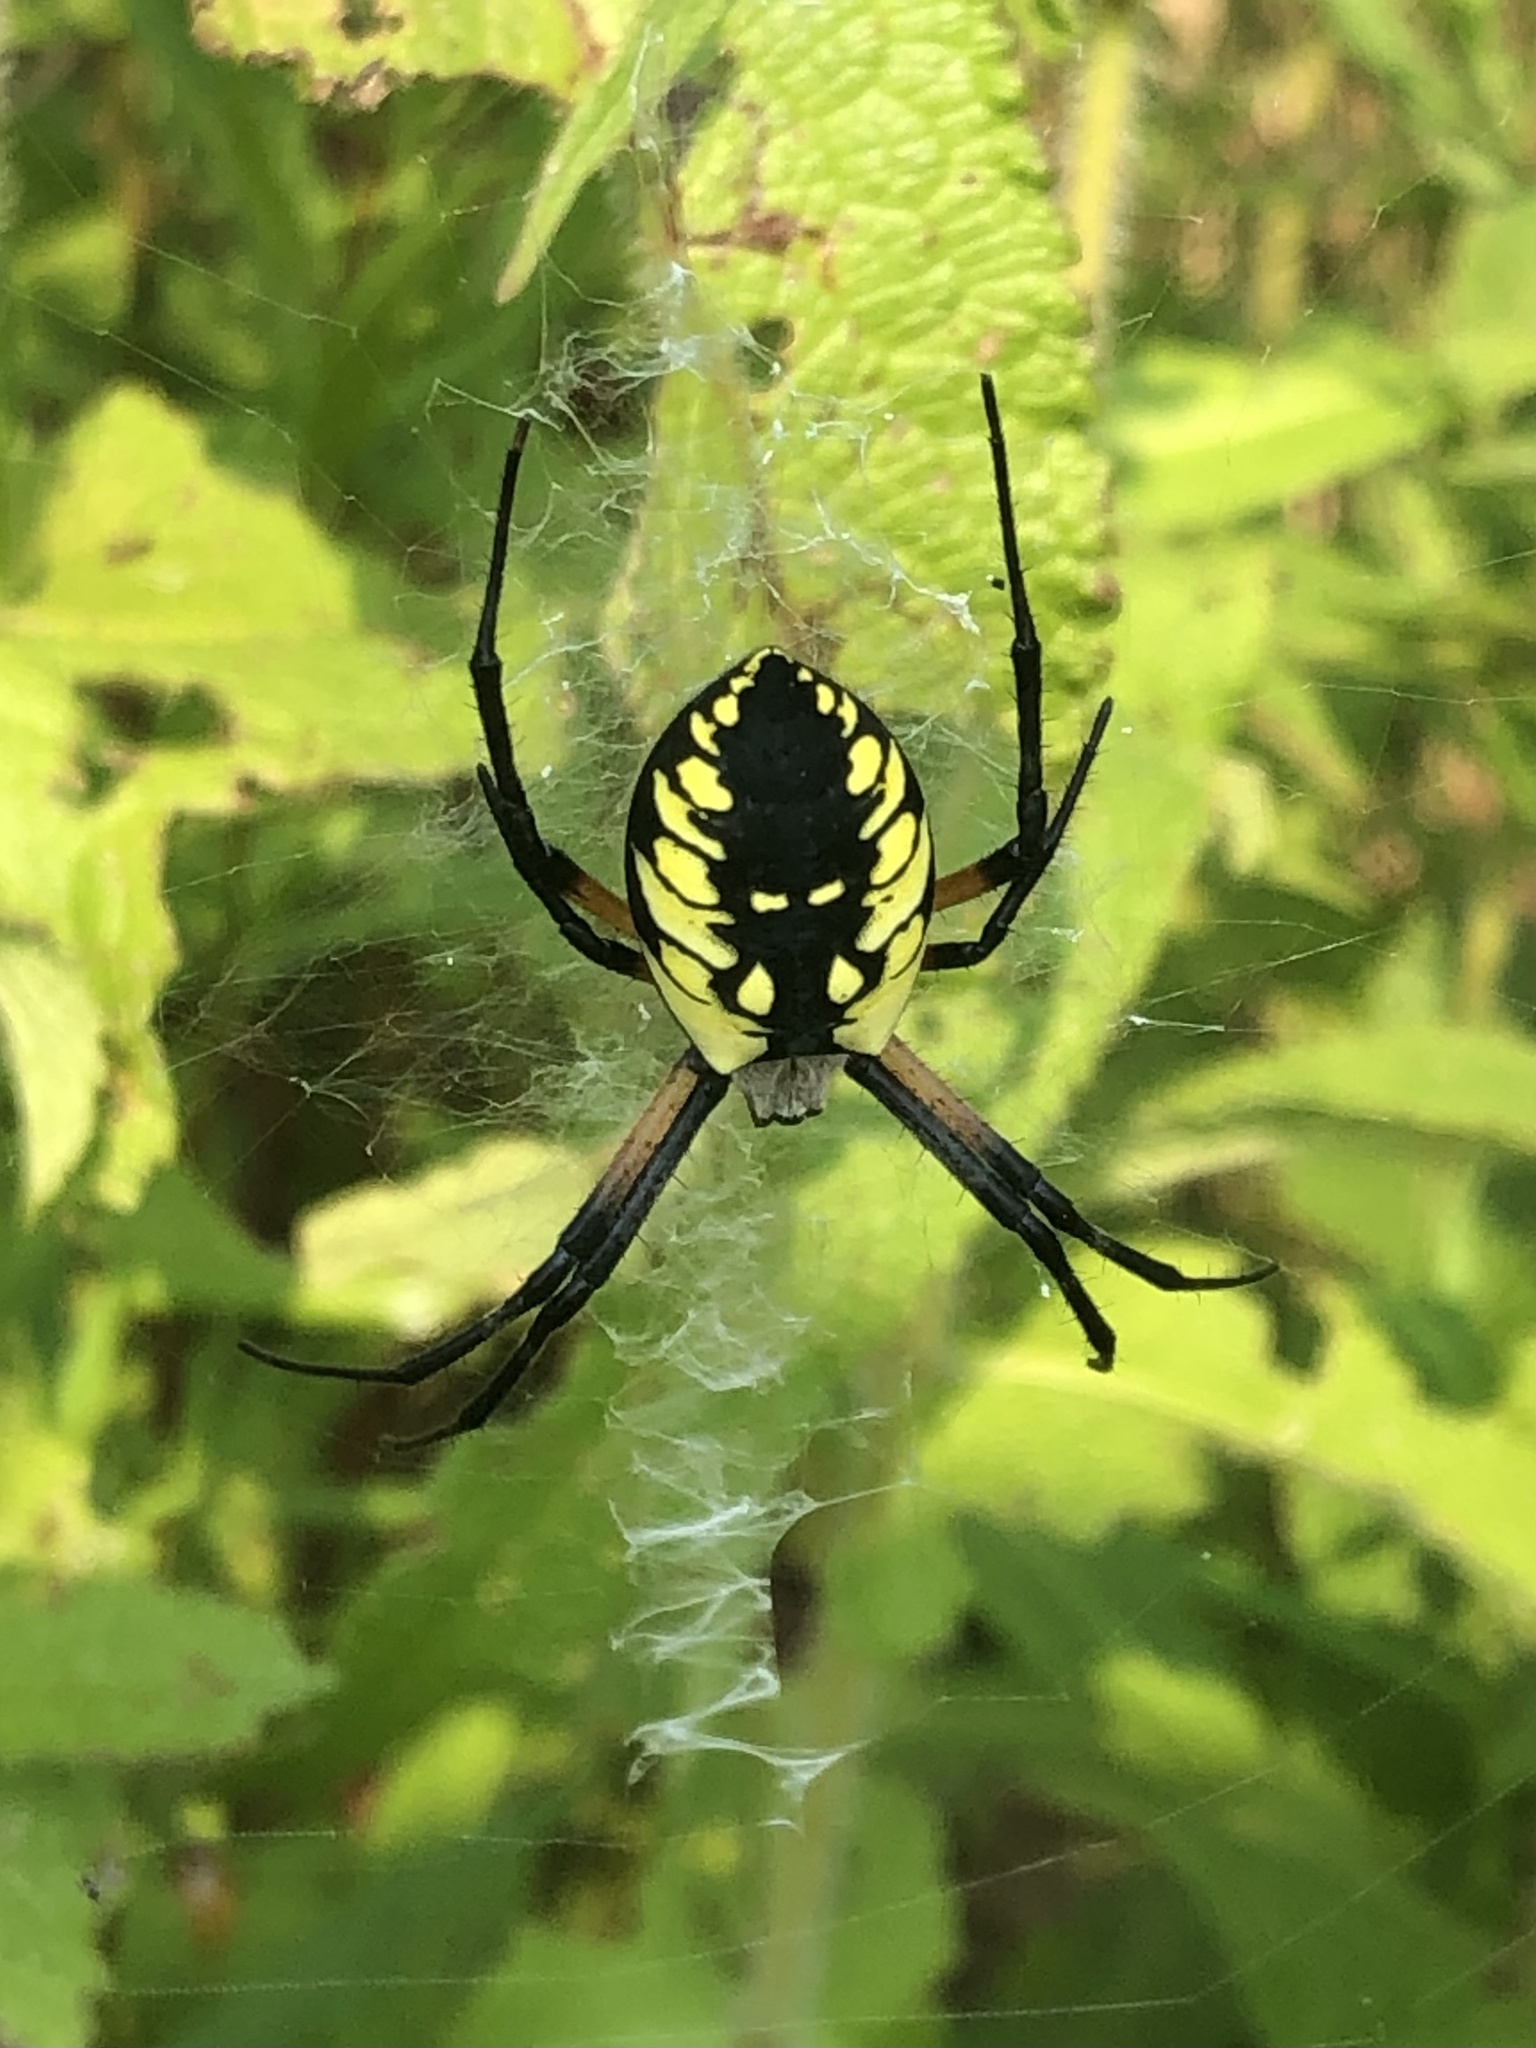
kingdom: Animalia
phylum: Arthropoda
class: Arachnida
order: Araneae
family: Araneidae
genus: Argiope
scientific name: Argiope aurantia
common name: Orb weavers
